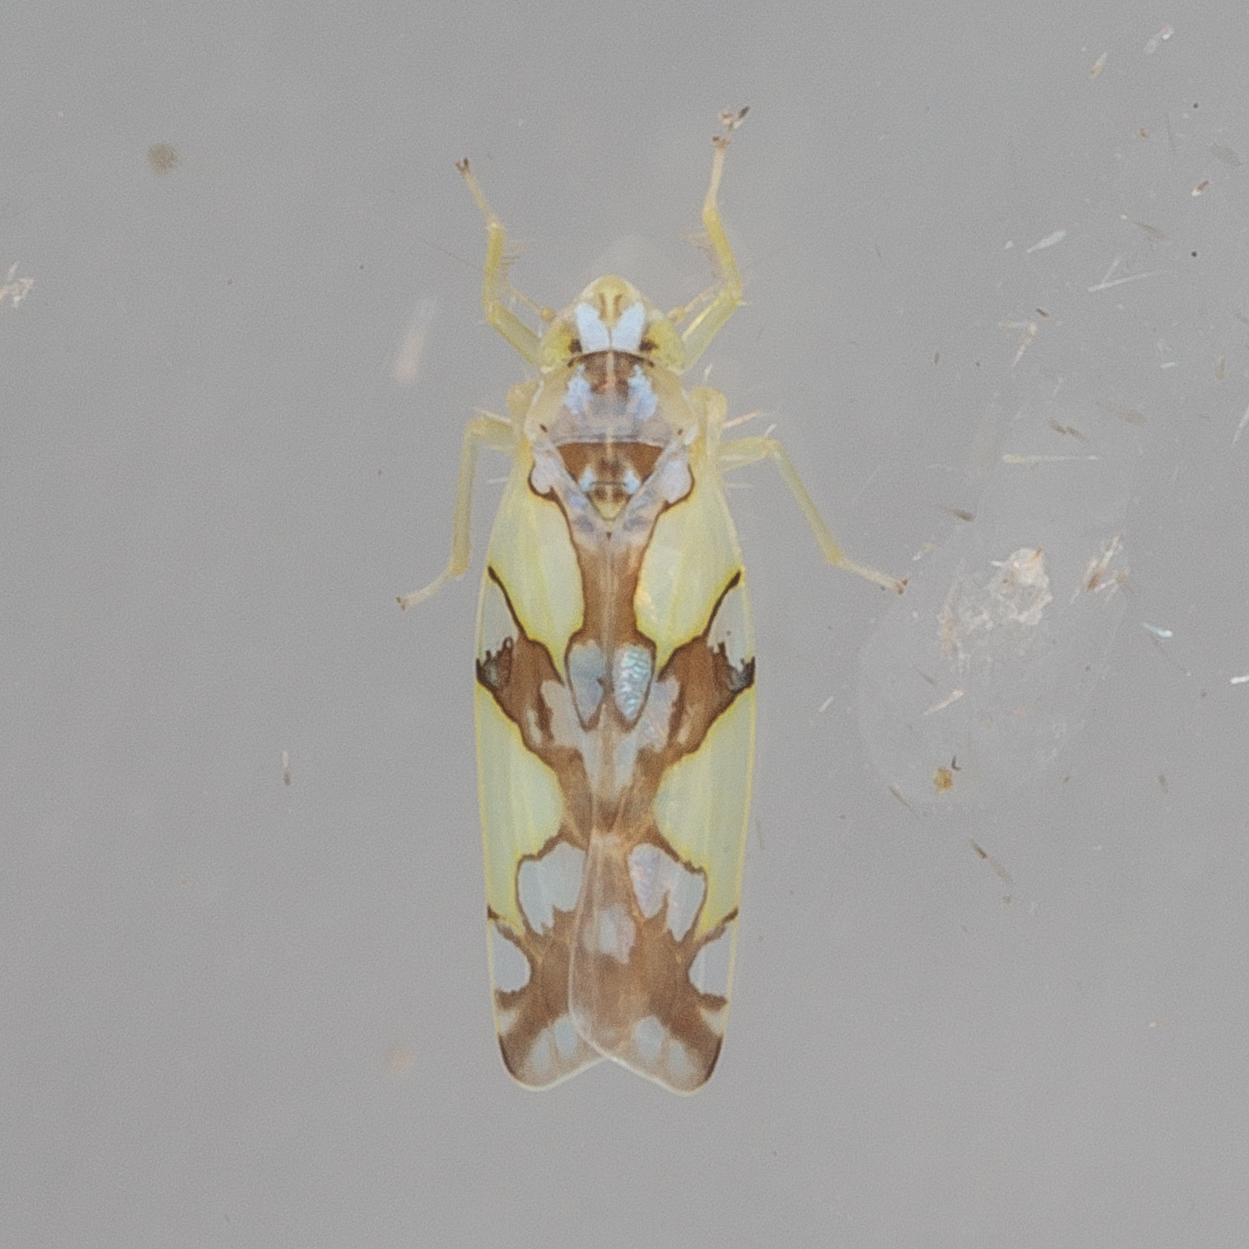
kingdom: Animalia
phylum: Arthropoda
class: Insecta
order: Hemiptera
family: Cicadellidae
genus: Protalebrella
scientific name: Protalebrella conica
